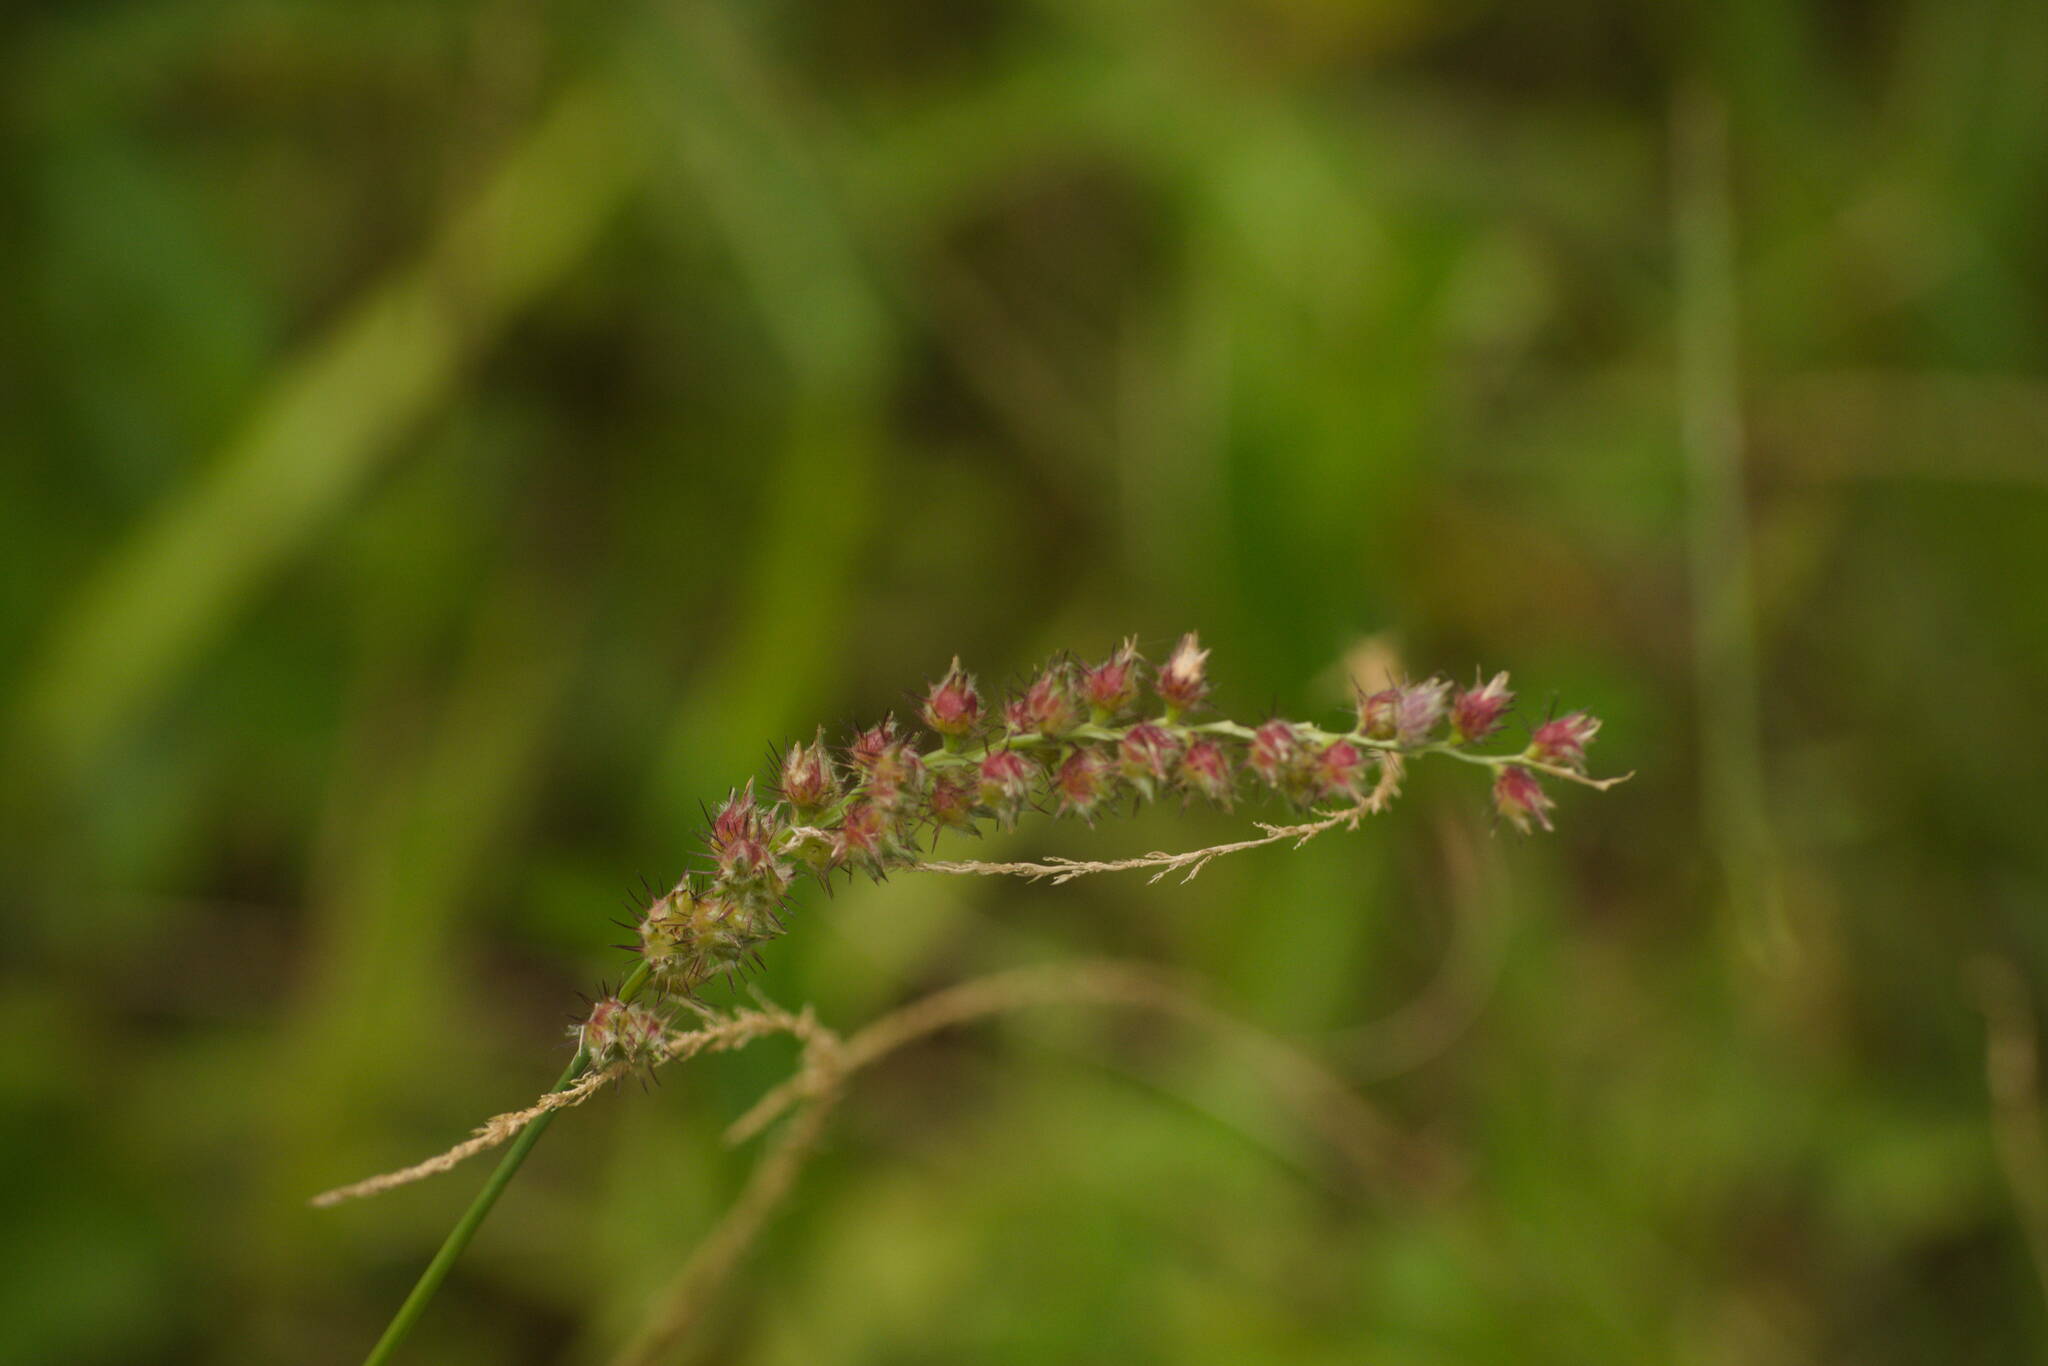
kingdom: Plantae
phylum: Tracheophyta
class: Liliopsida
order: Poales
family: Poaceae
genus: Cenchrus
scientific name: Cenchrus echinatus
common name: Southern sandbur
